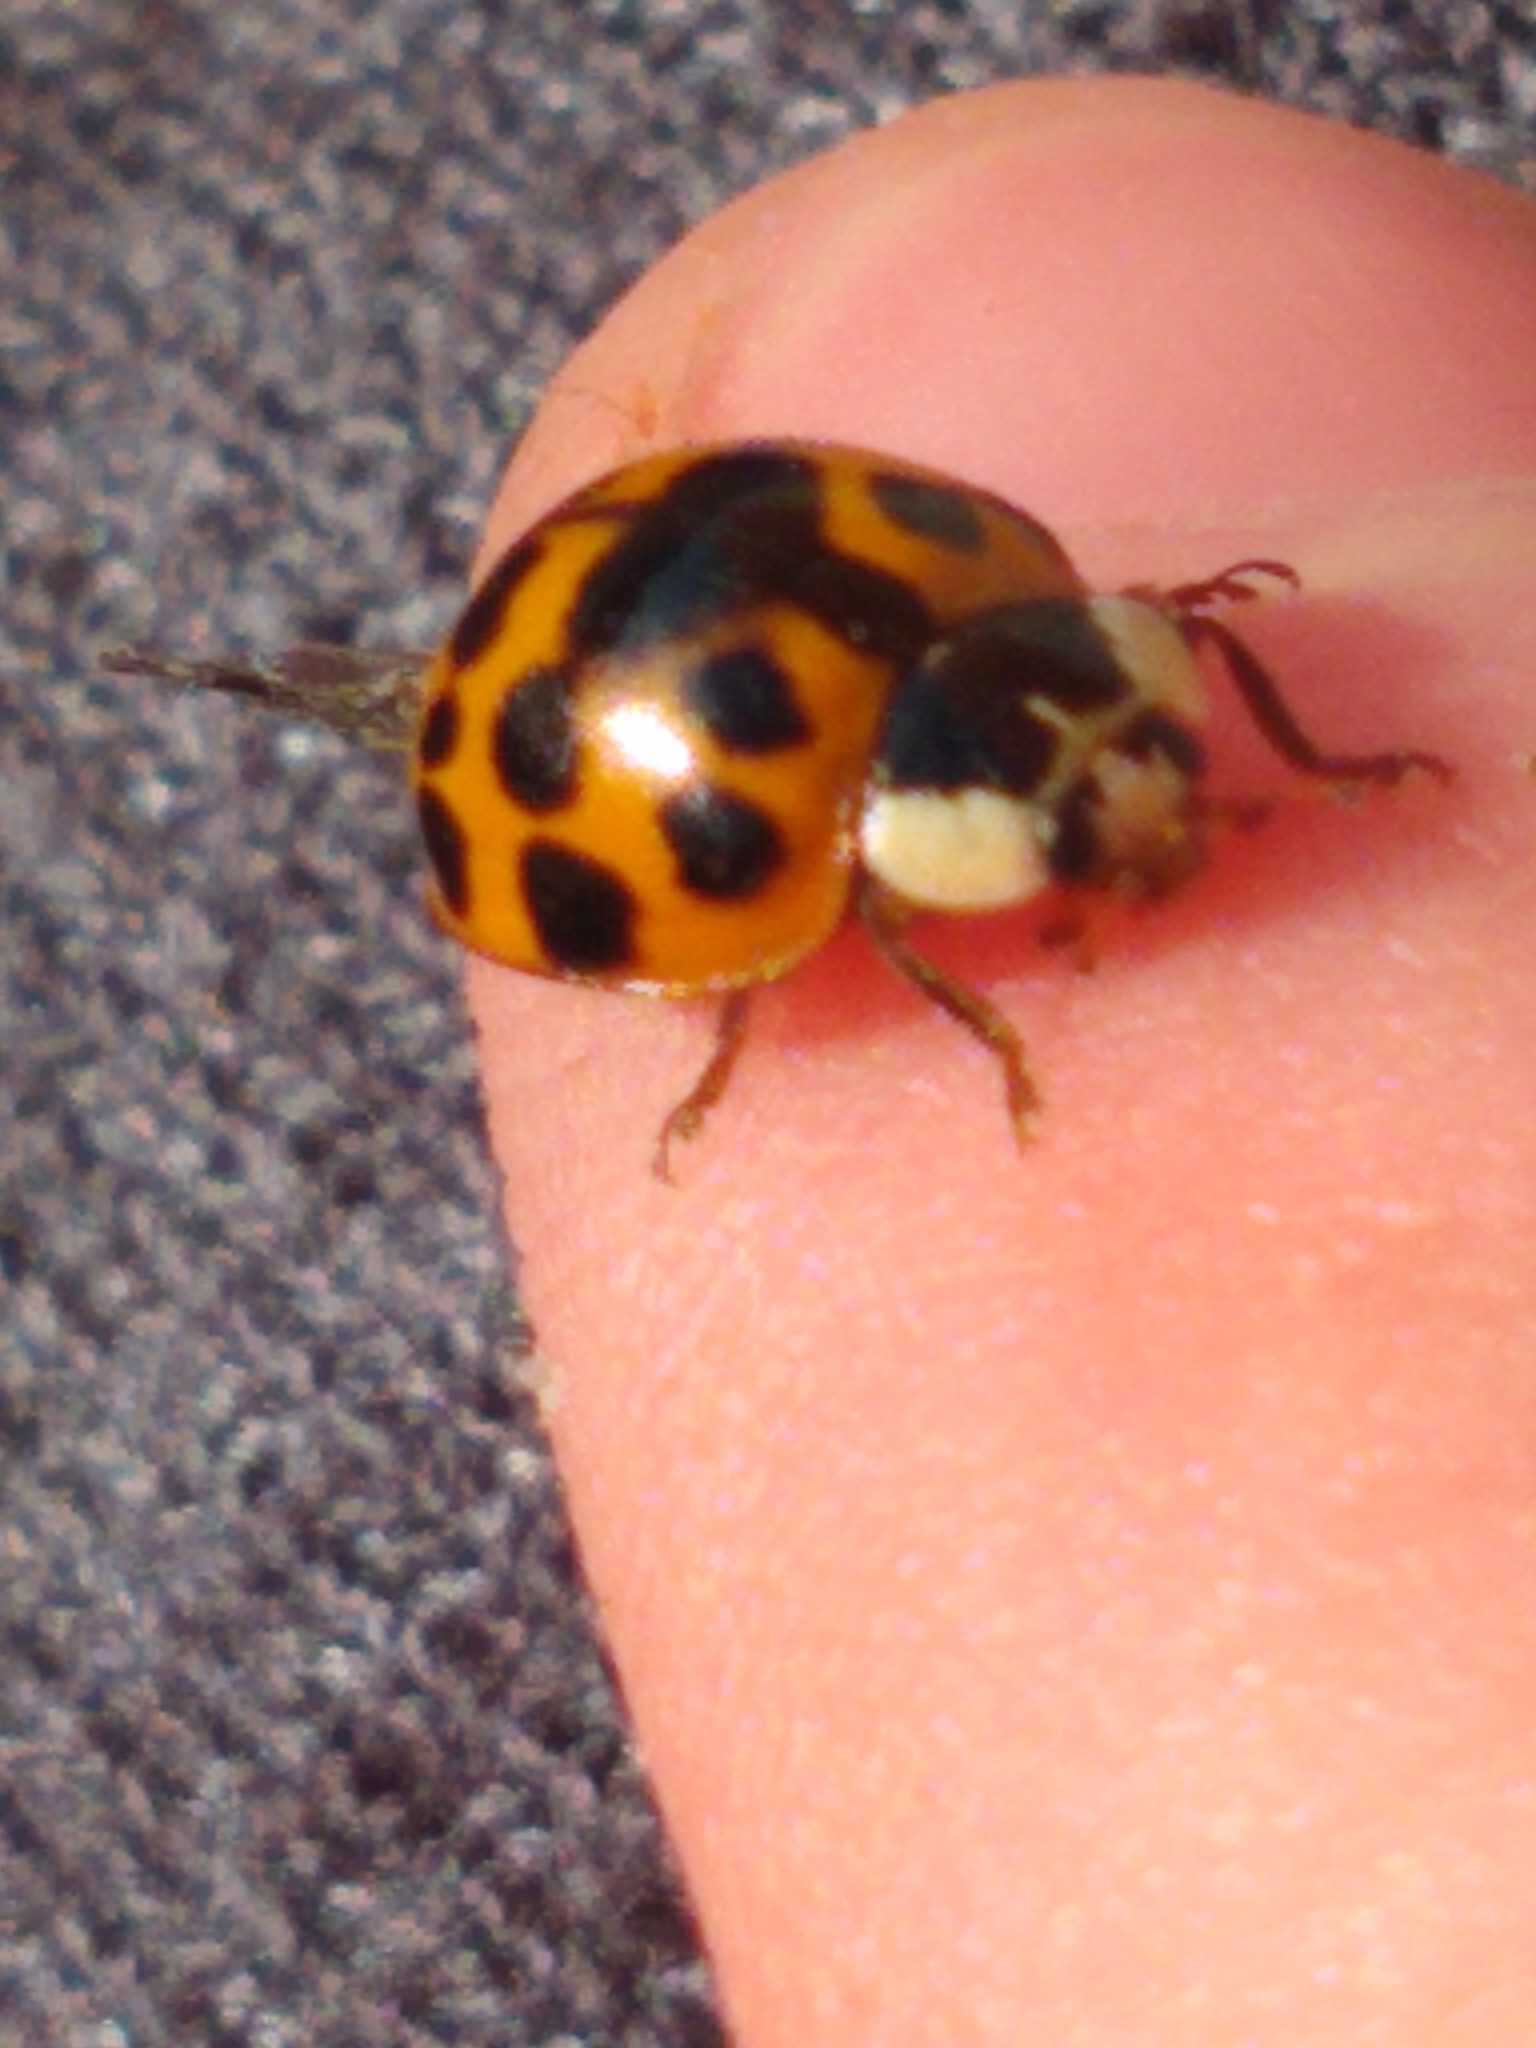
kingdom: Animalia
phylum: Arthropoda
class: Insecta
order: Coleoptera
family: Coccinellidae
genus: Harmonia
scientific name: Harmonia axyridis
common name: Harlequin ladybird
